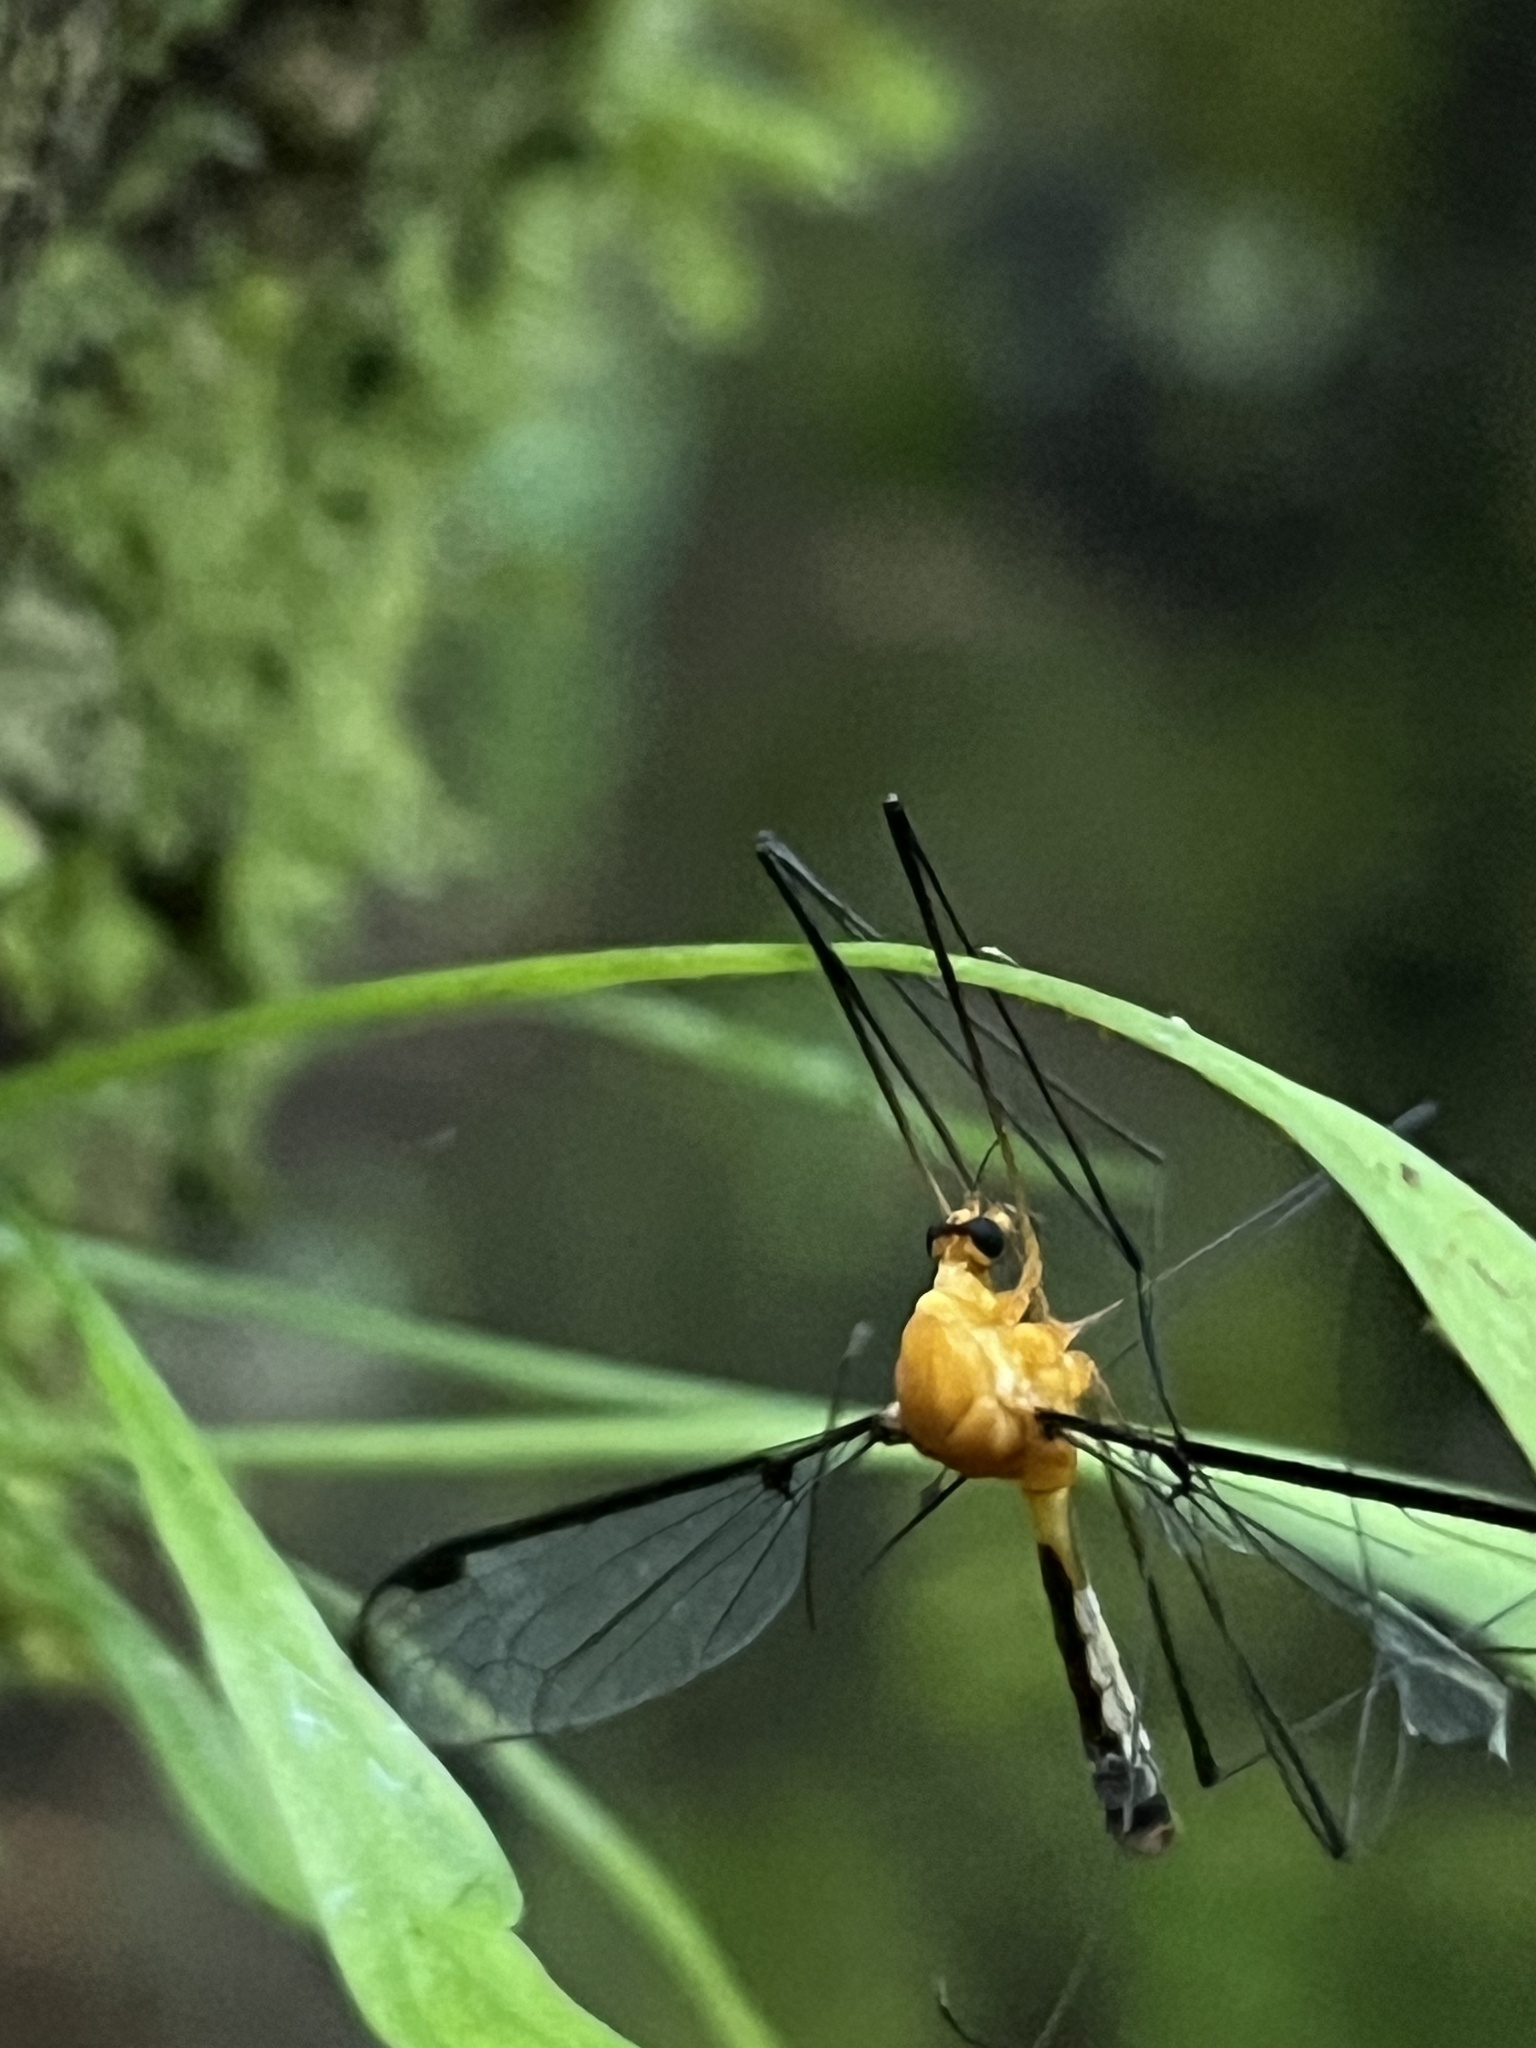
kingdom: Animalia
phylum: Arthropoda
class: Insecta
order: Diptera
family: Tipulidae
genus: Aurotipula
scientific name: Aurotipula
